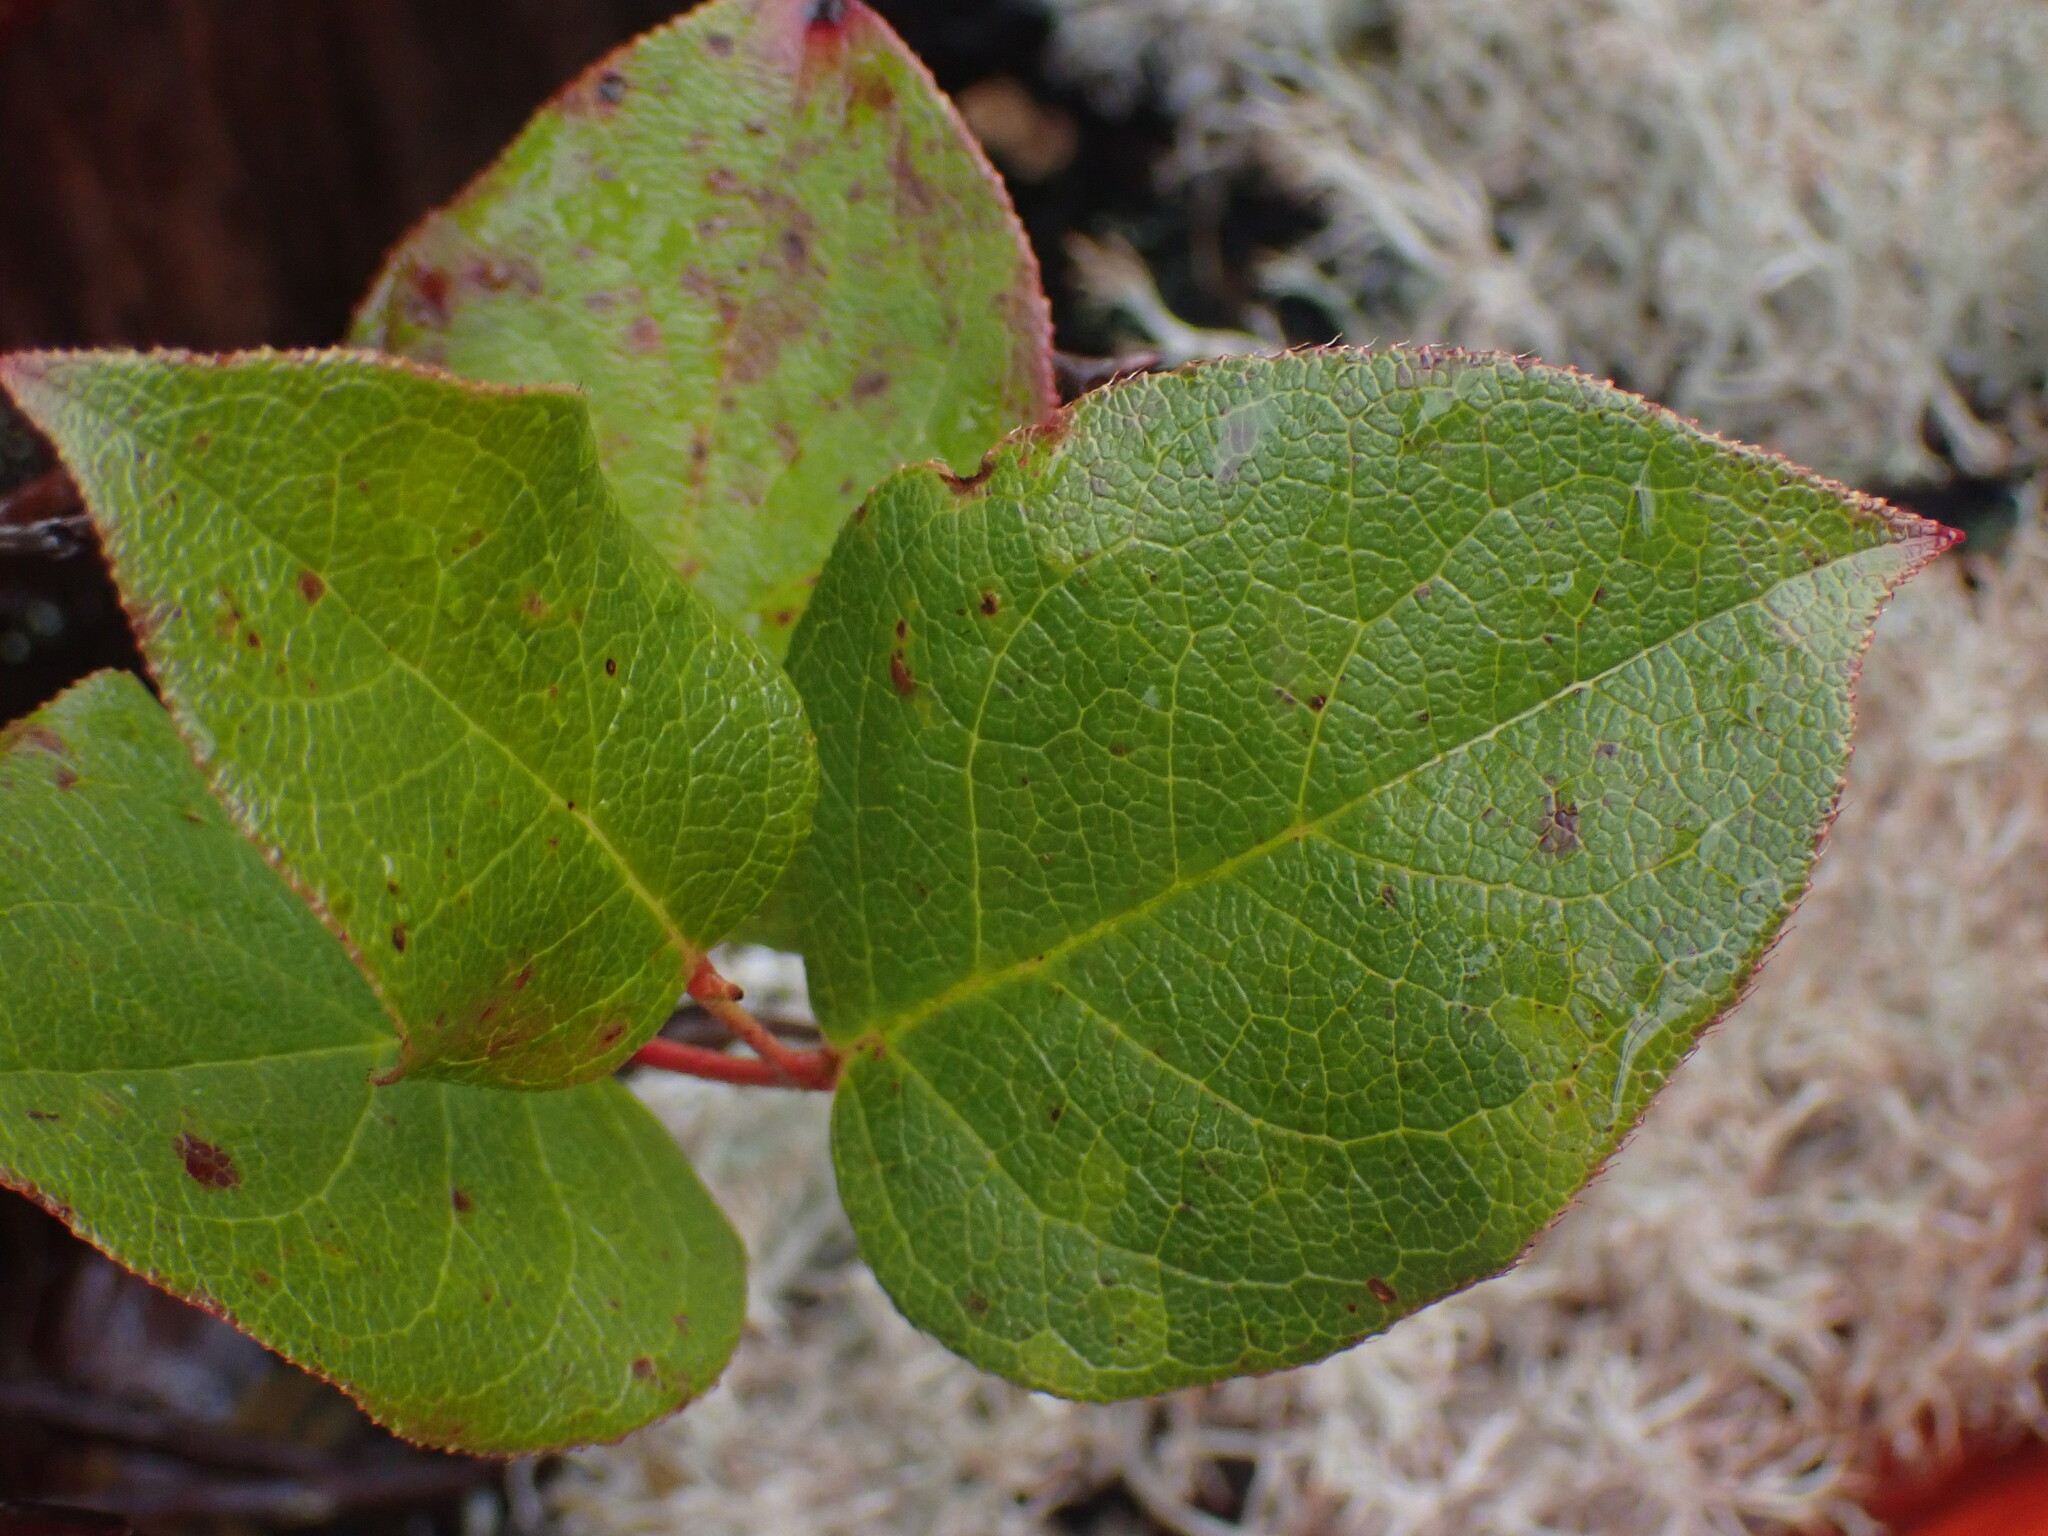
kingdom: Plantae
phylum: Tracheophyta
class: Magnoliopsida
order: Ericales
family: Ericaceae
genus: Gaultheria
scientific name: Gaultheria shallon
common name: Shallon
